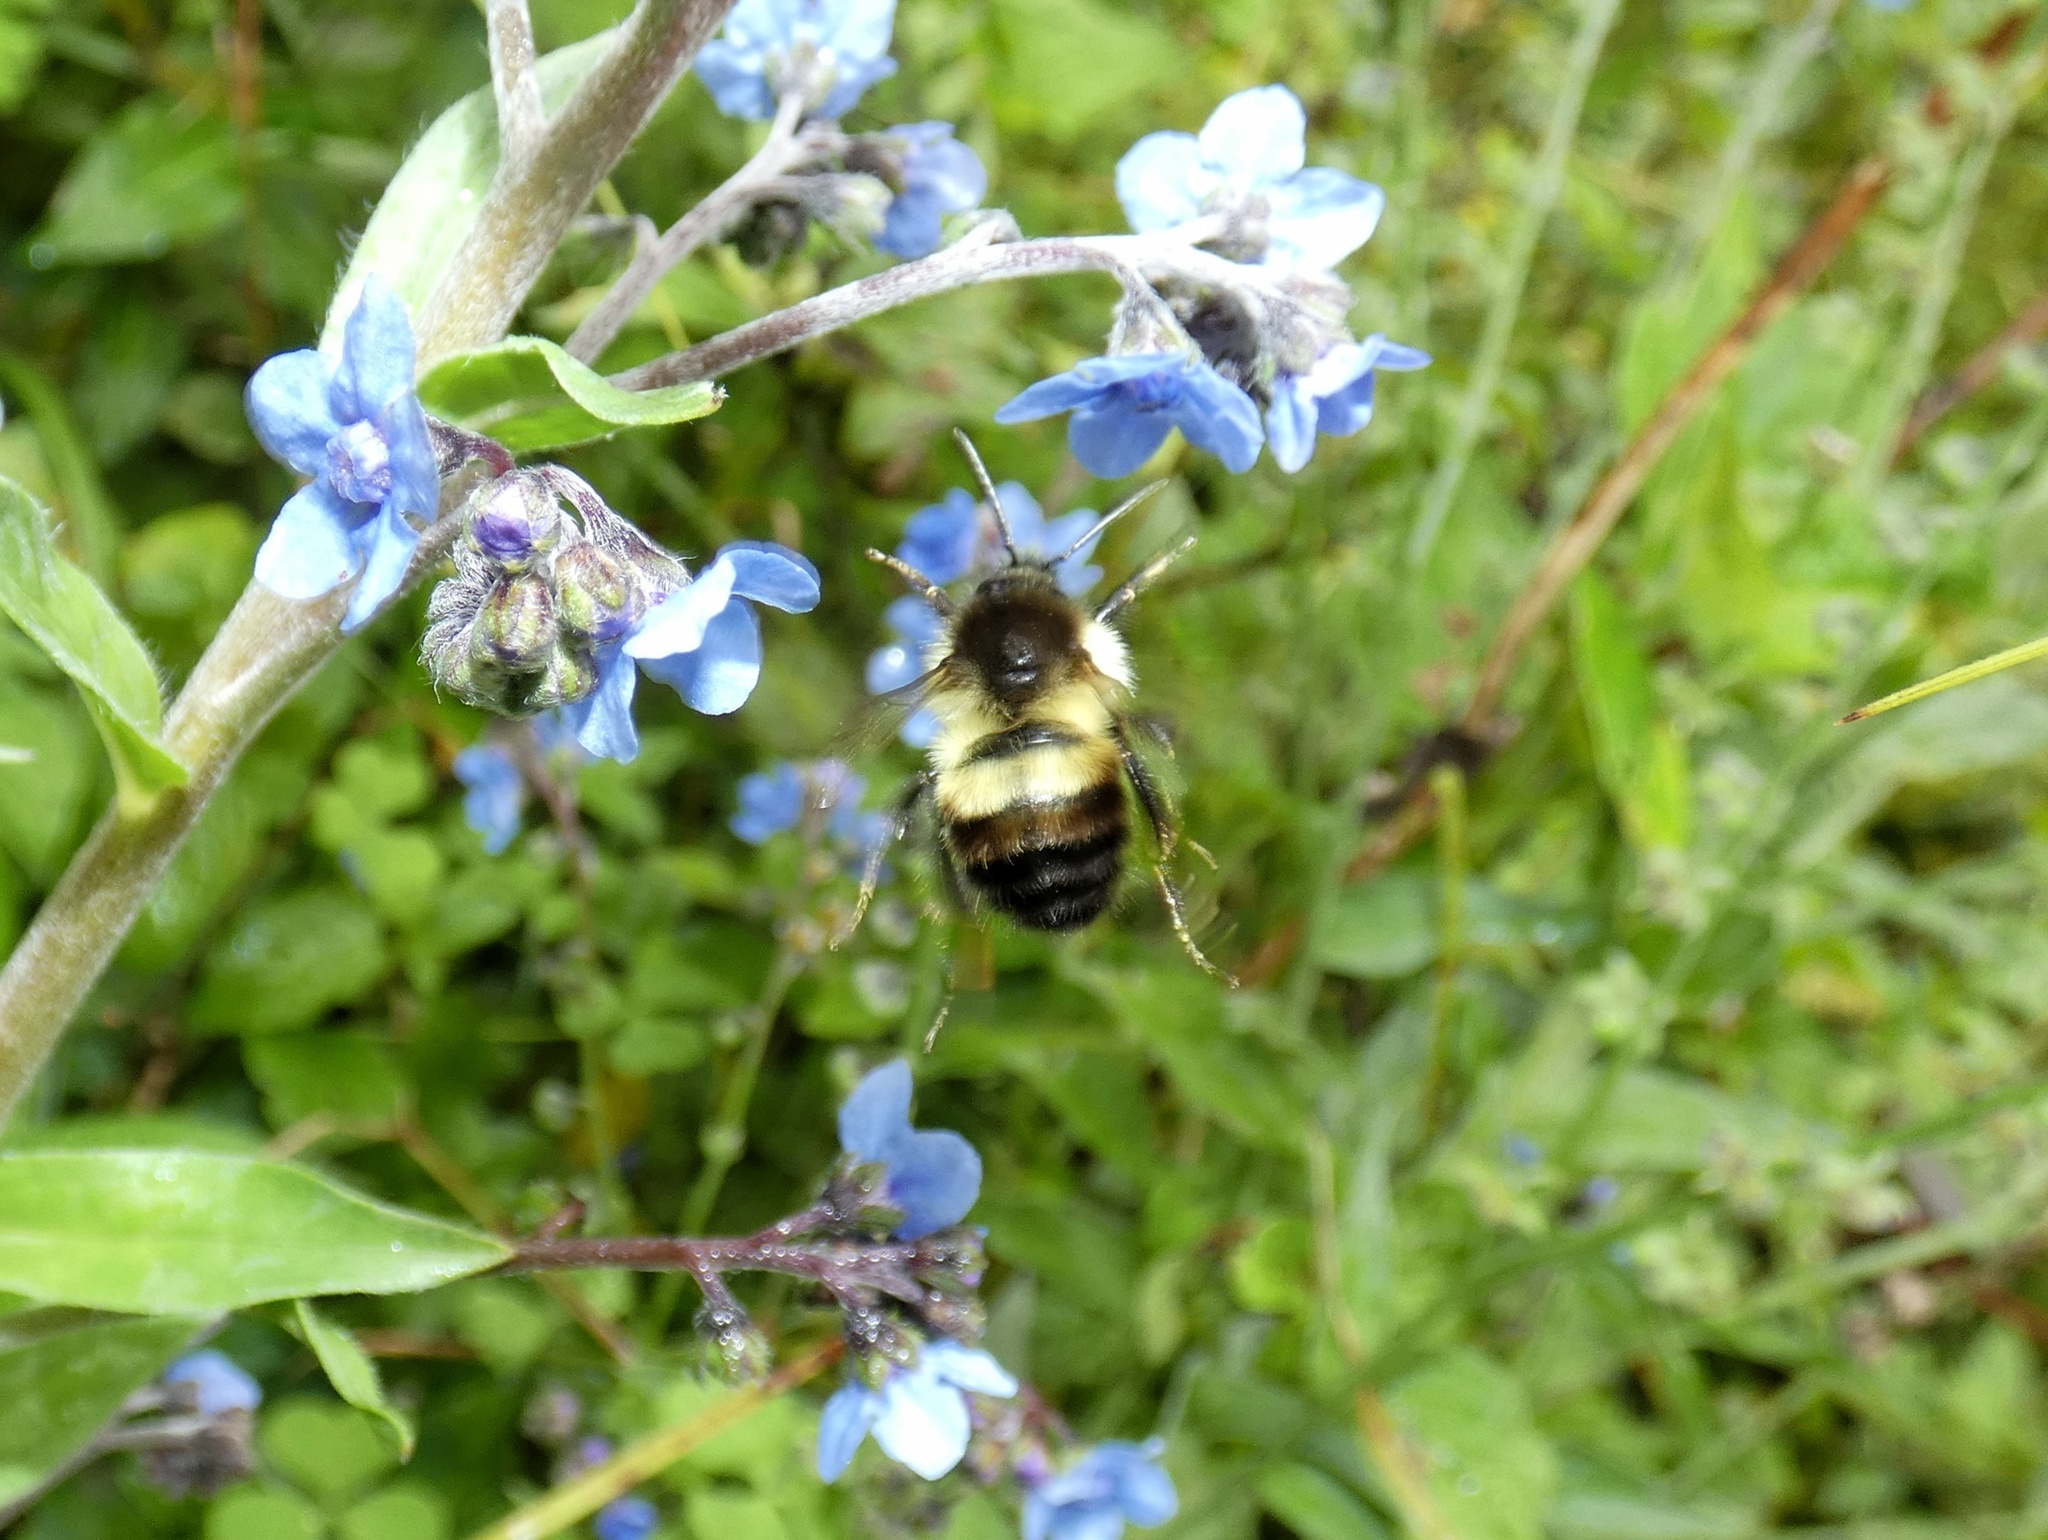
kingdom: Animalia
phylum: Arthropoda
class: Insecta
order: Hymenoptera
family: Apidae
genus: Bombus
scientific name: Bombus ephippiatus
